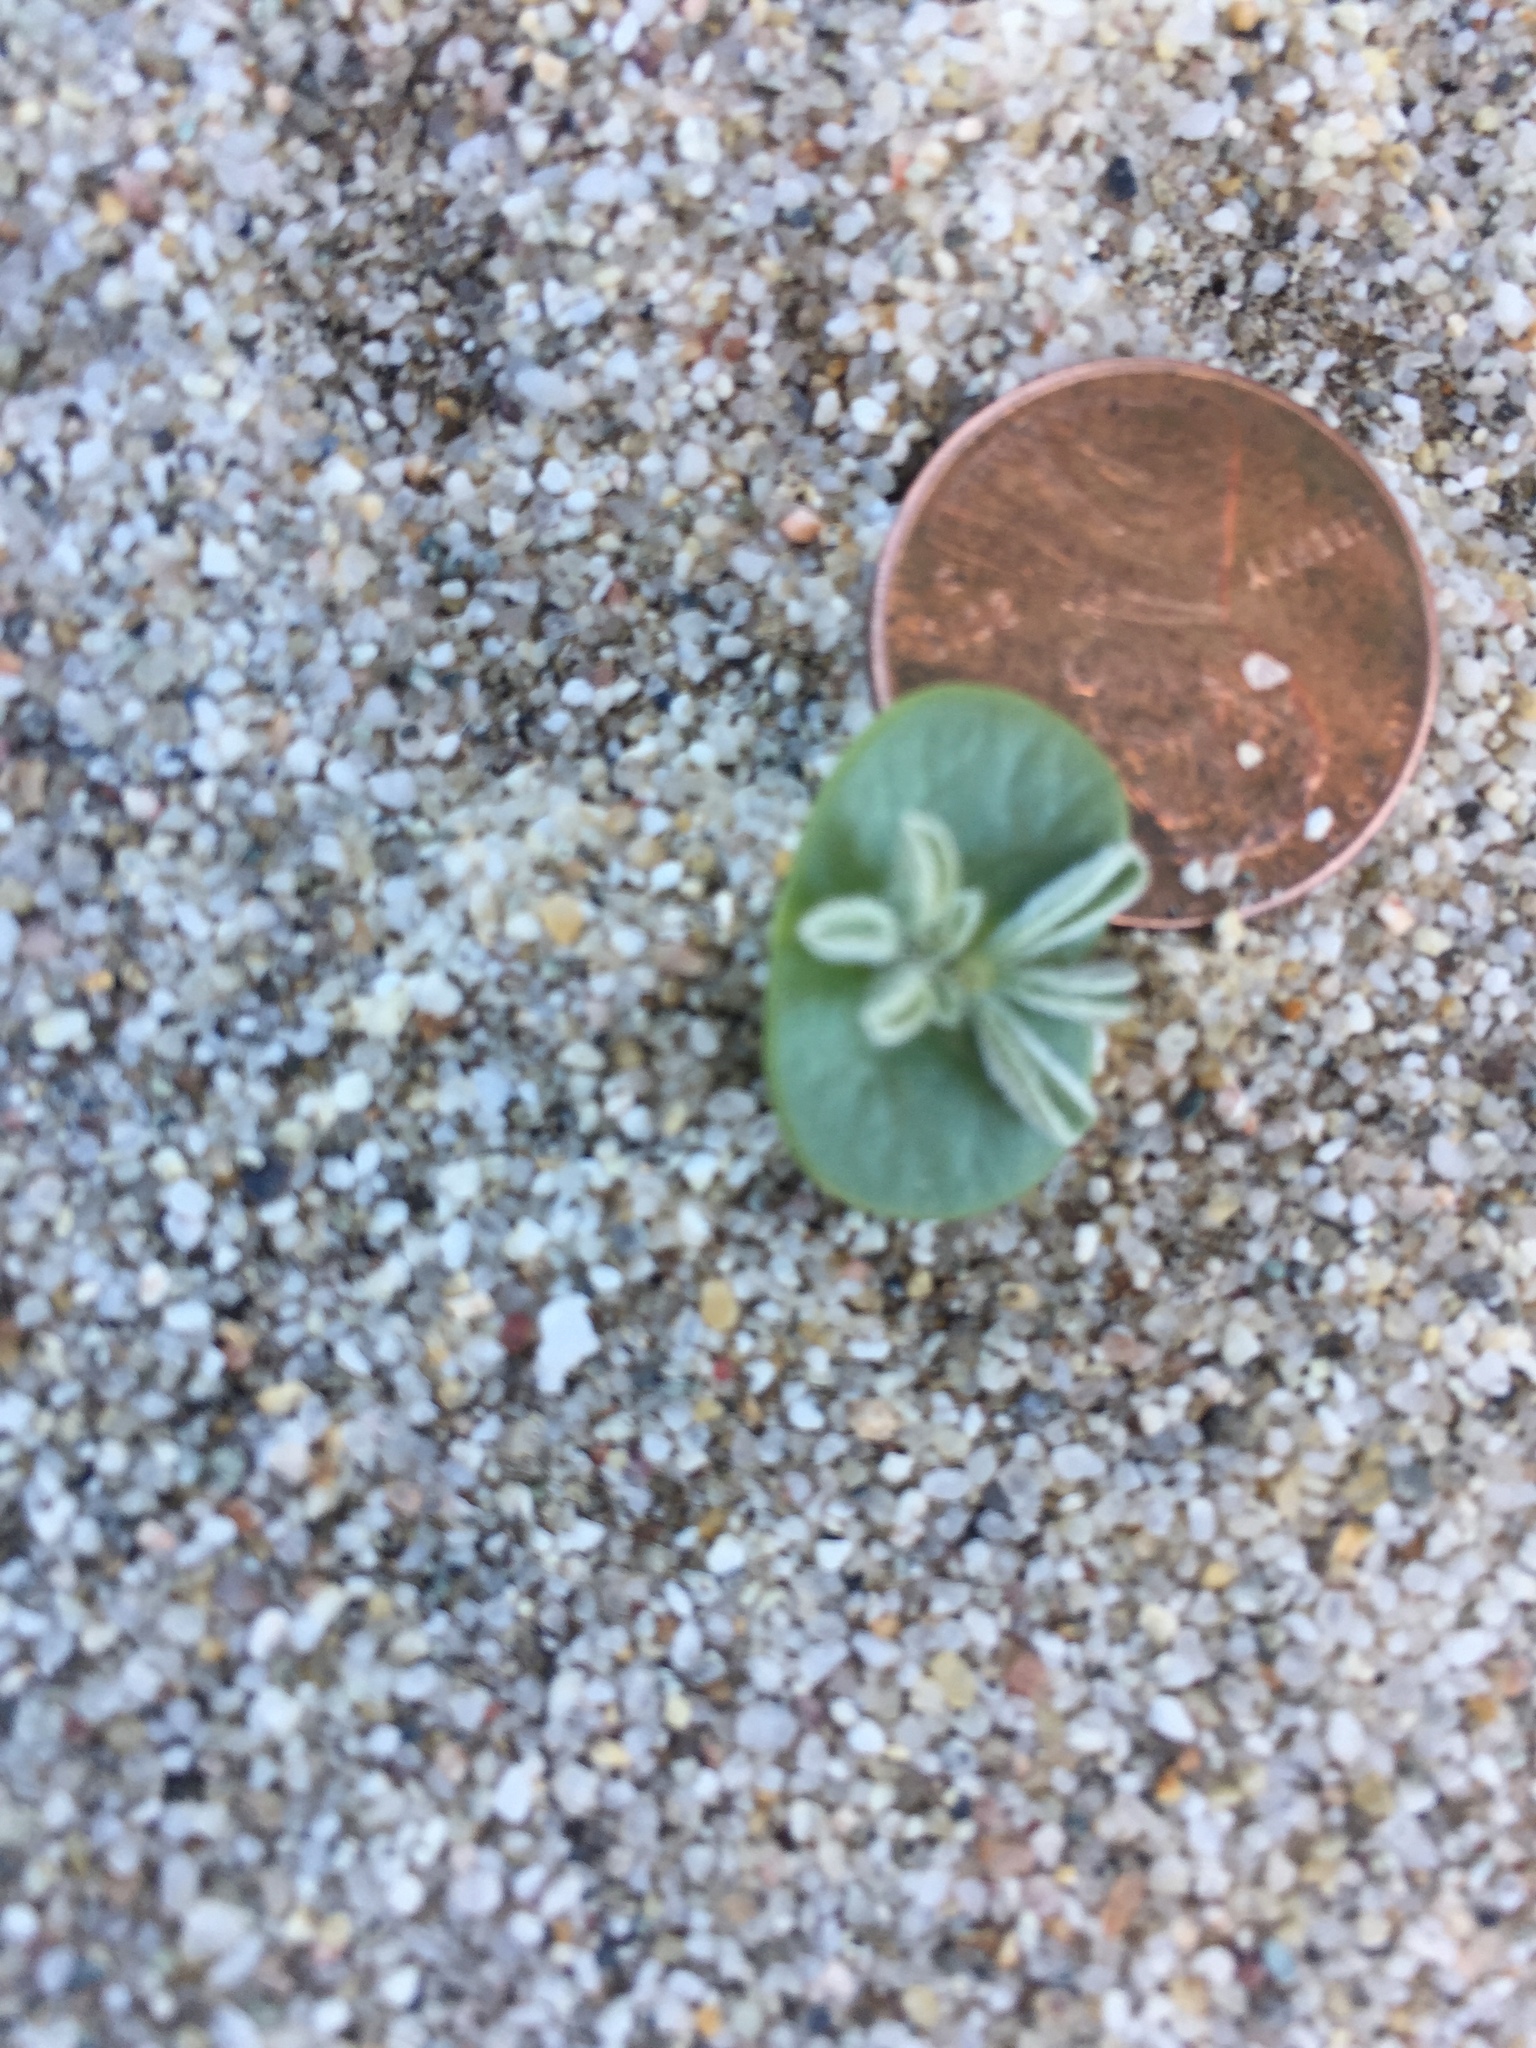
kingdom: Plantae
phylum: Tracheophyta
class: Magnoliopsida
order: Fabales
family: Fabaceae
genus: Lupinus
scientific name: Lupinus shockleyi
